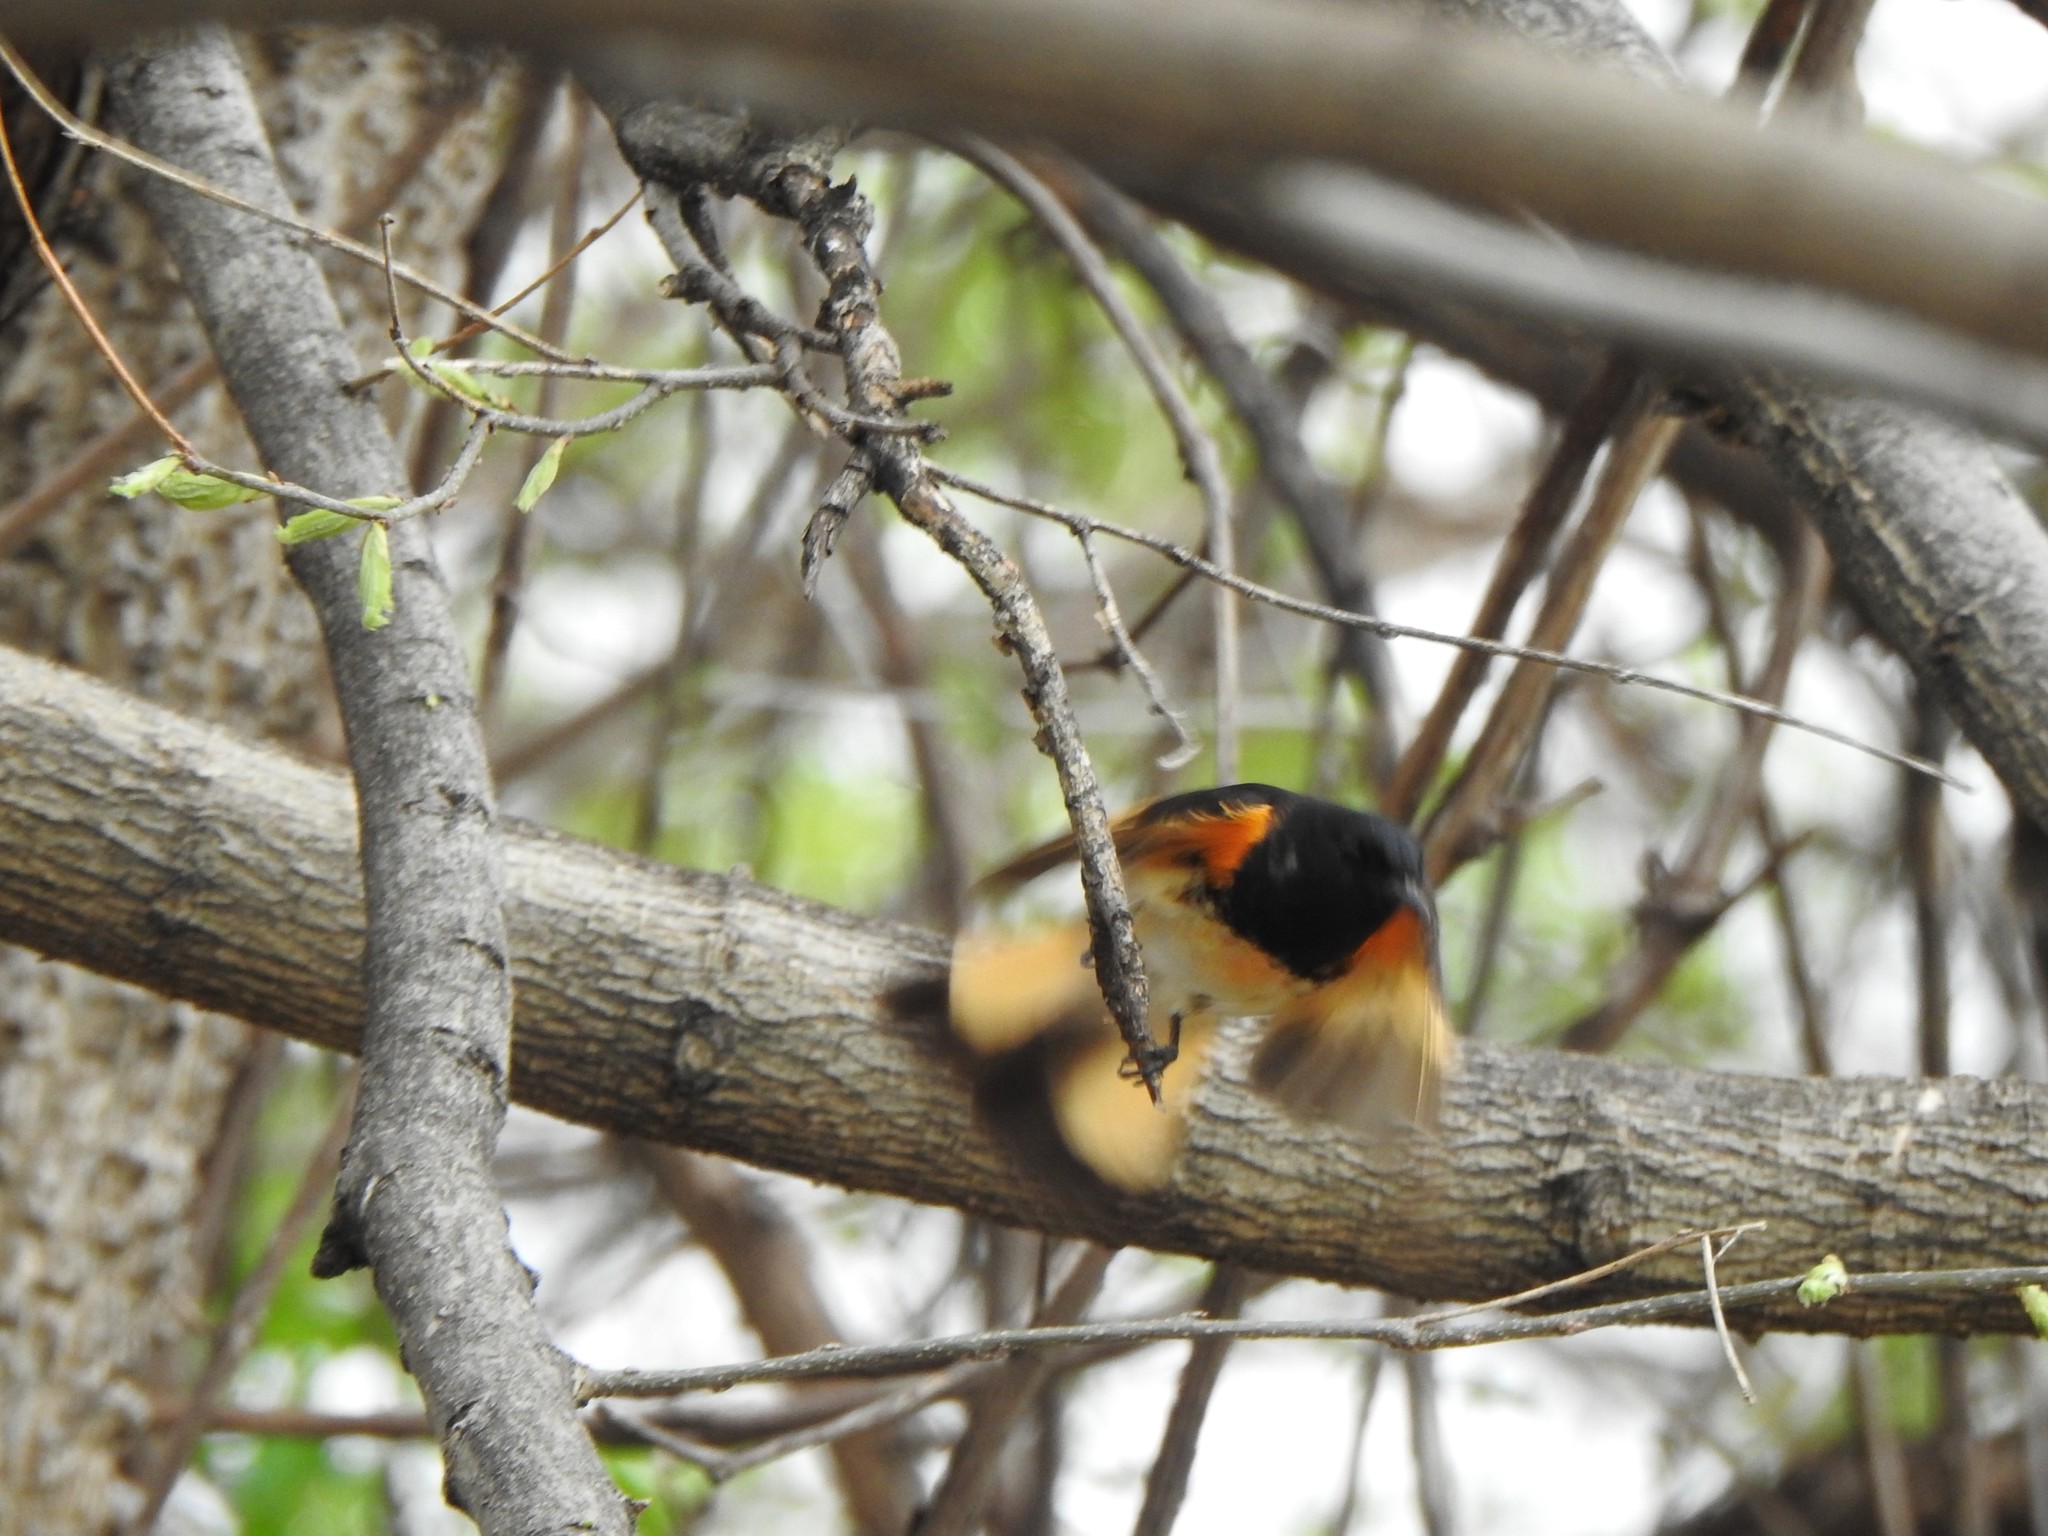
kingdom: Animalia
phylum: Chordata
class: Aves
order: Passeriformes
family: Parulidae
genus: Setophaga
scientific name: Setophaga ruticilla
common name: American redstart
